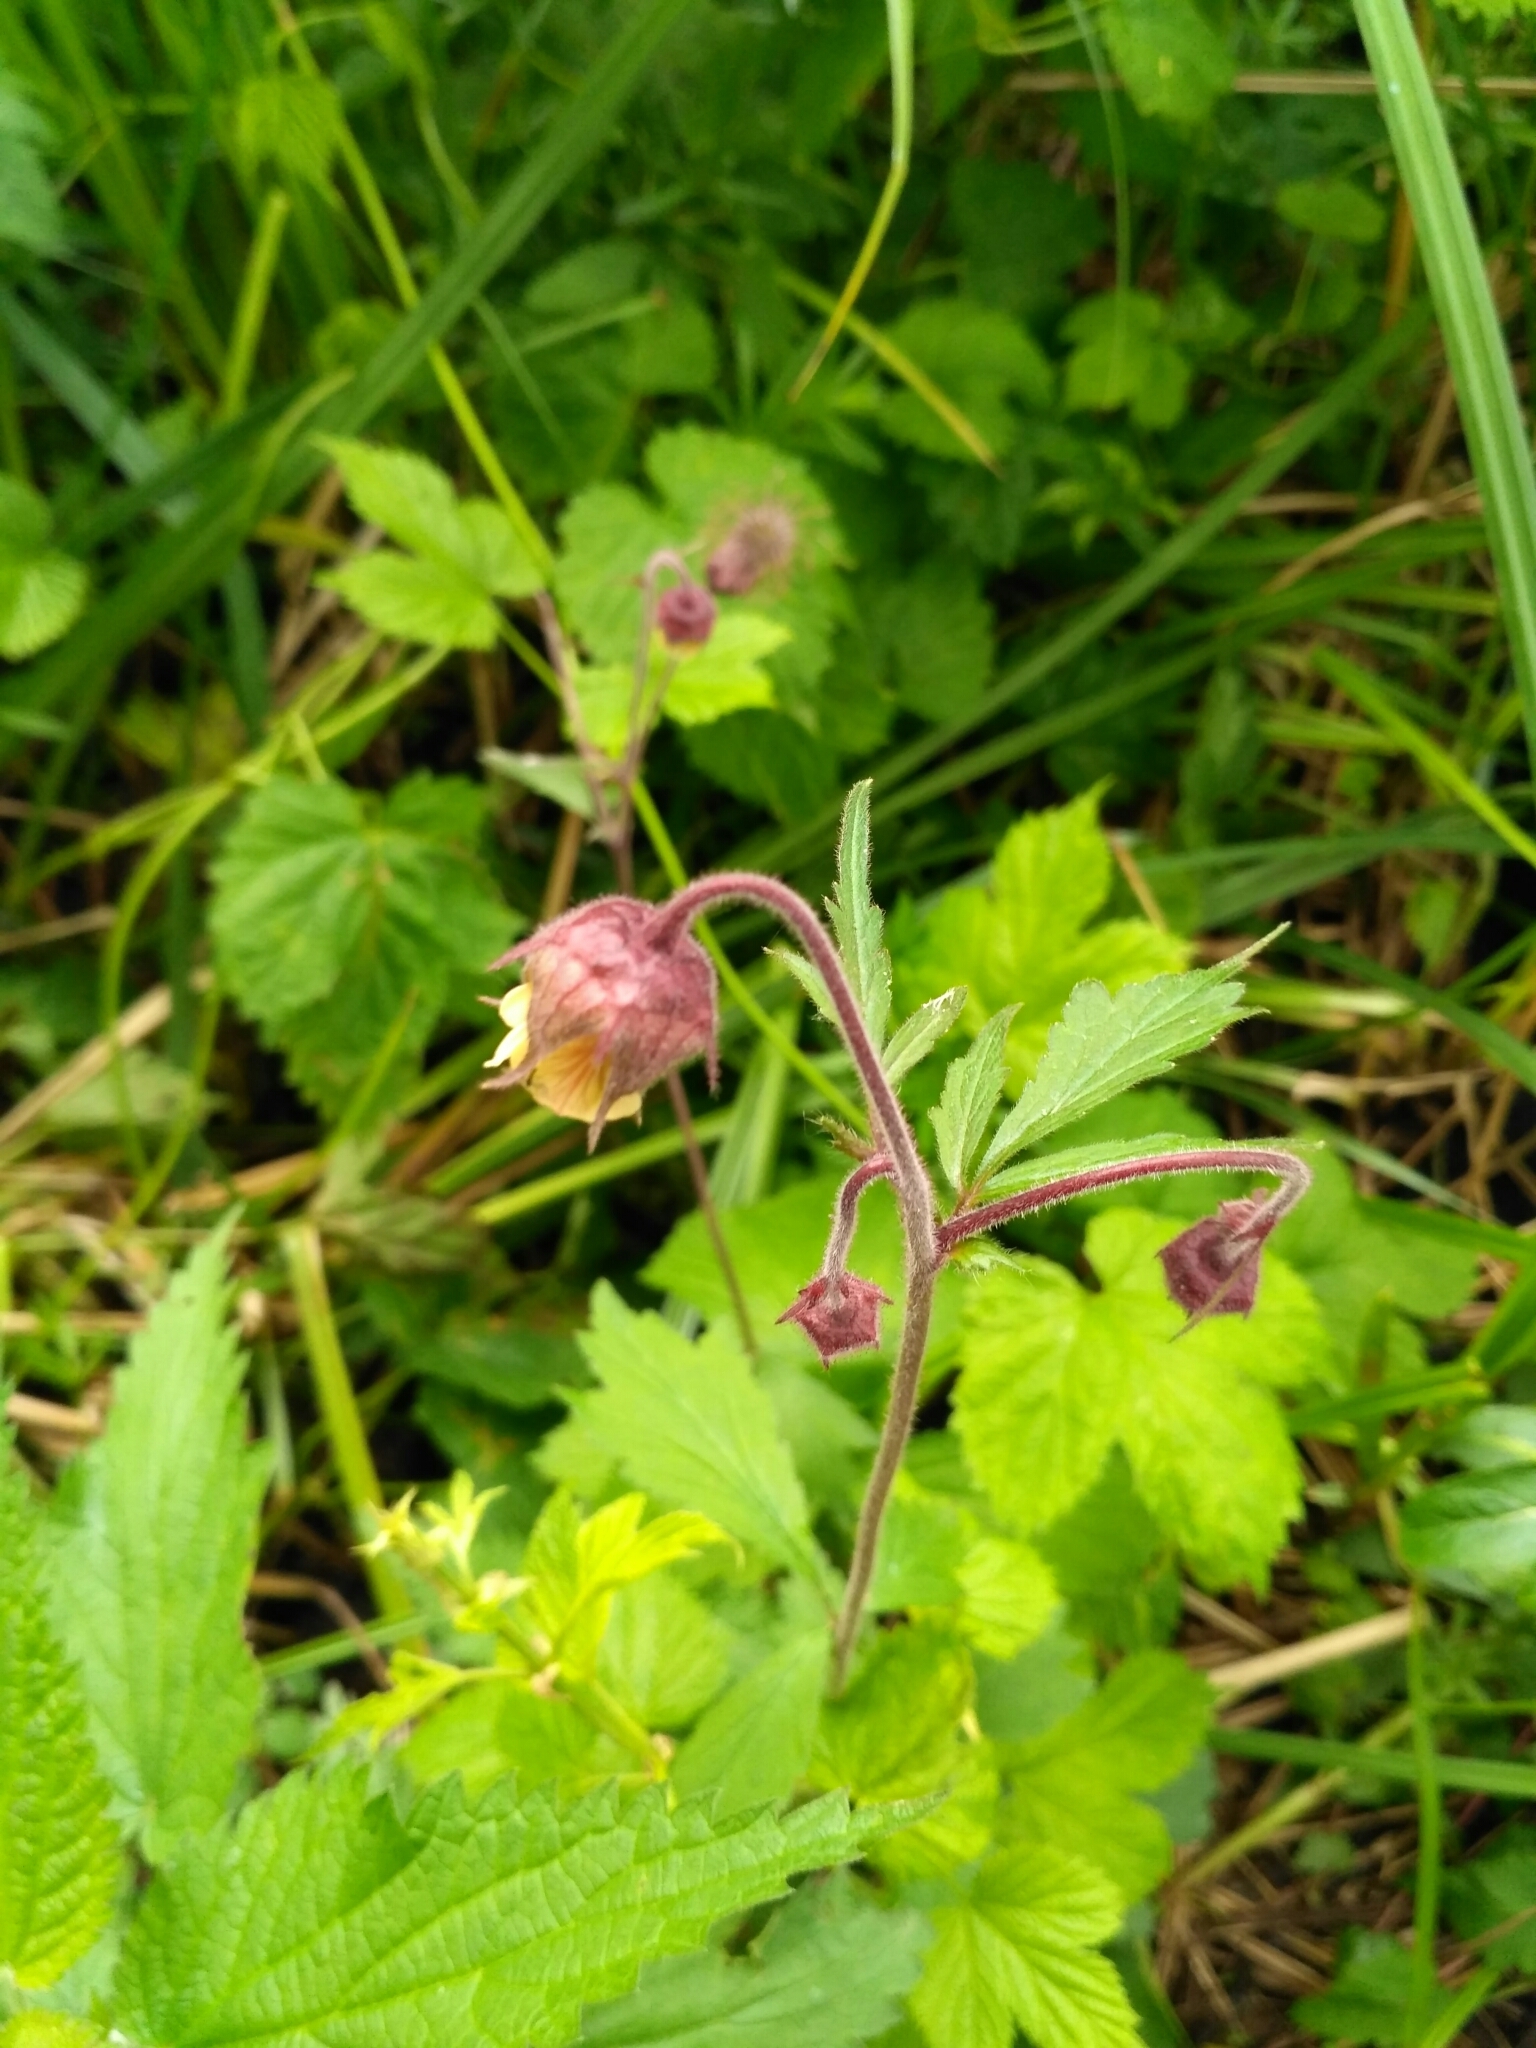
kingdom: Plantae
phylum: Tracheophyta
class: Magnoliopsida
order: Rosales
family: Rosaceae
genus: Geum
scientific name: Geum rivale
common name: Water avens
